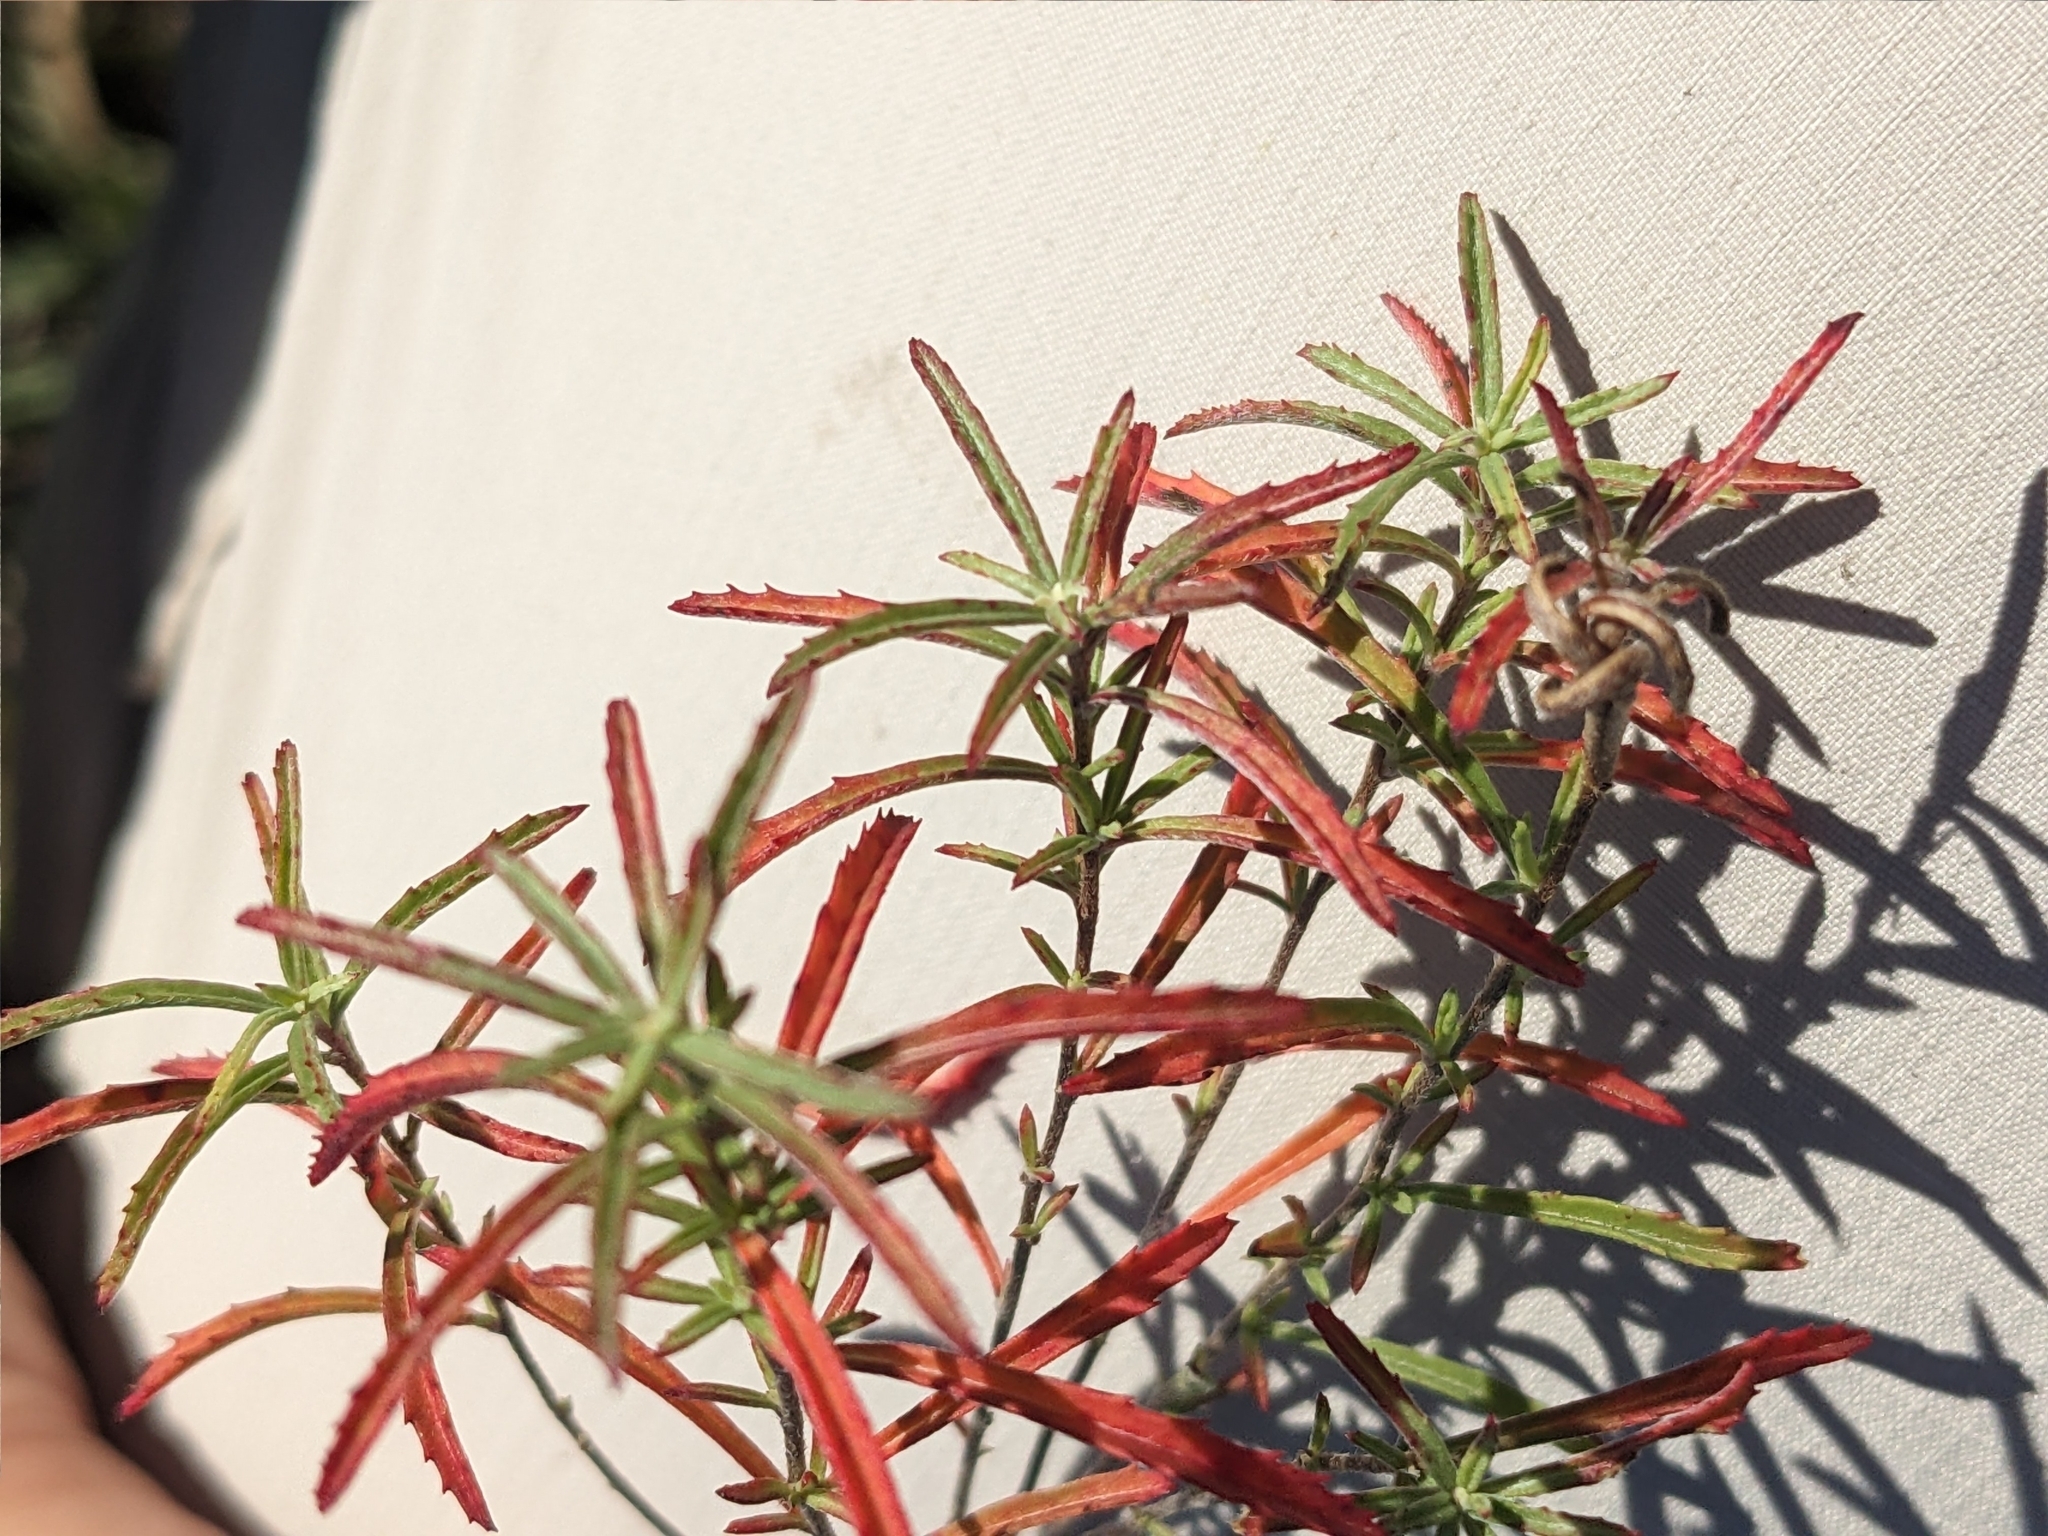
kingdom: Plantae
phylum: Tracheophyta
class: Magnoliopsida
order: Myrtales
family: Onagraceae
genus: Oenothera
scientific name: Oenothera serrulata
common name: Half-shrub calylophus
